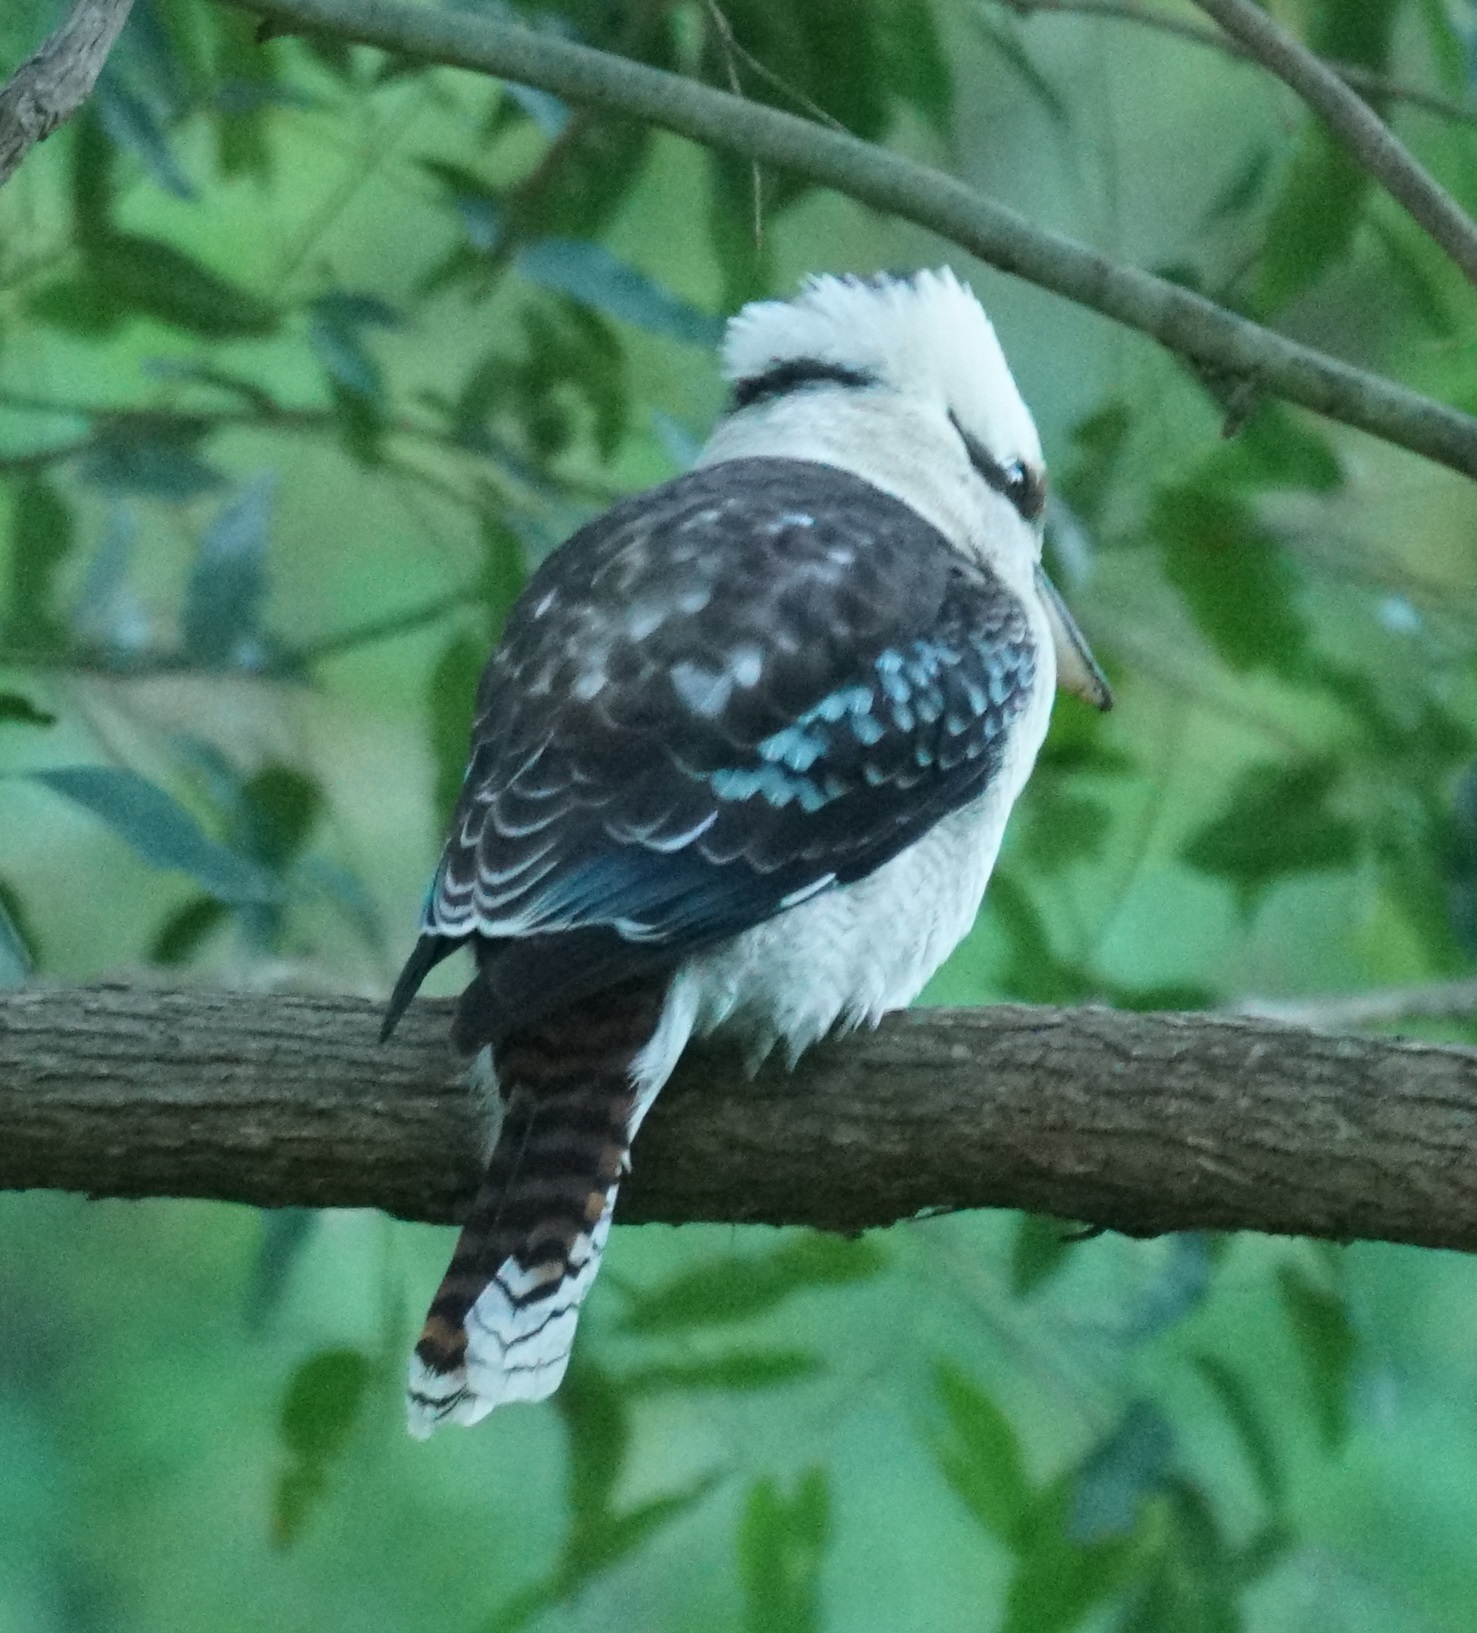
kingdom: Animalia
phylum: Chordata
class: Aves
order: Coraciiformes
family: Alcedinidae
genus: Dacelo
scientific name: Dacelo novaeguineae
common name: Laughing kookaburra
